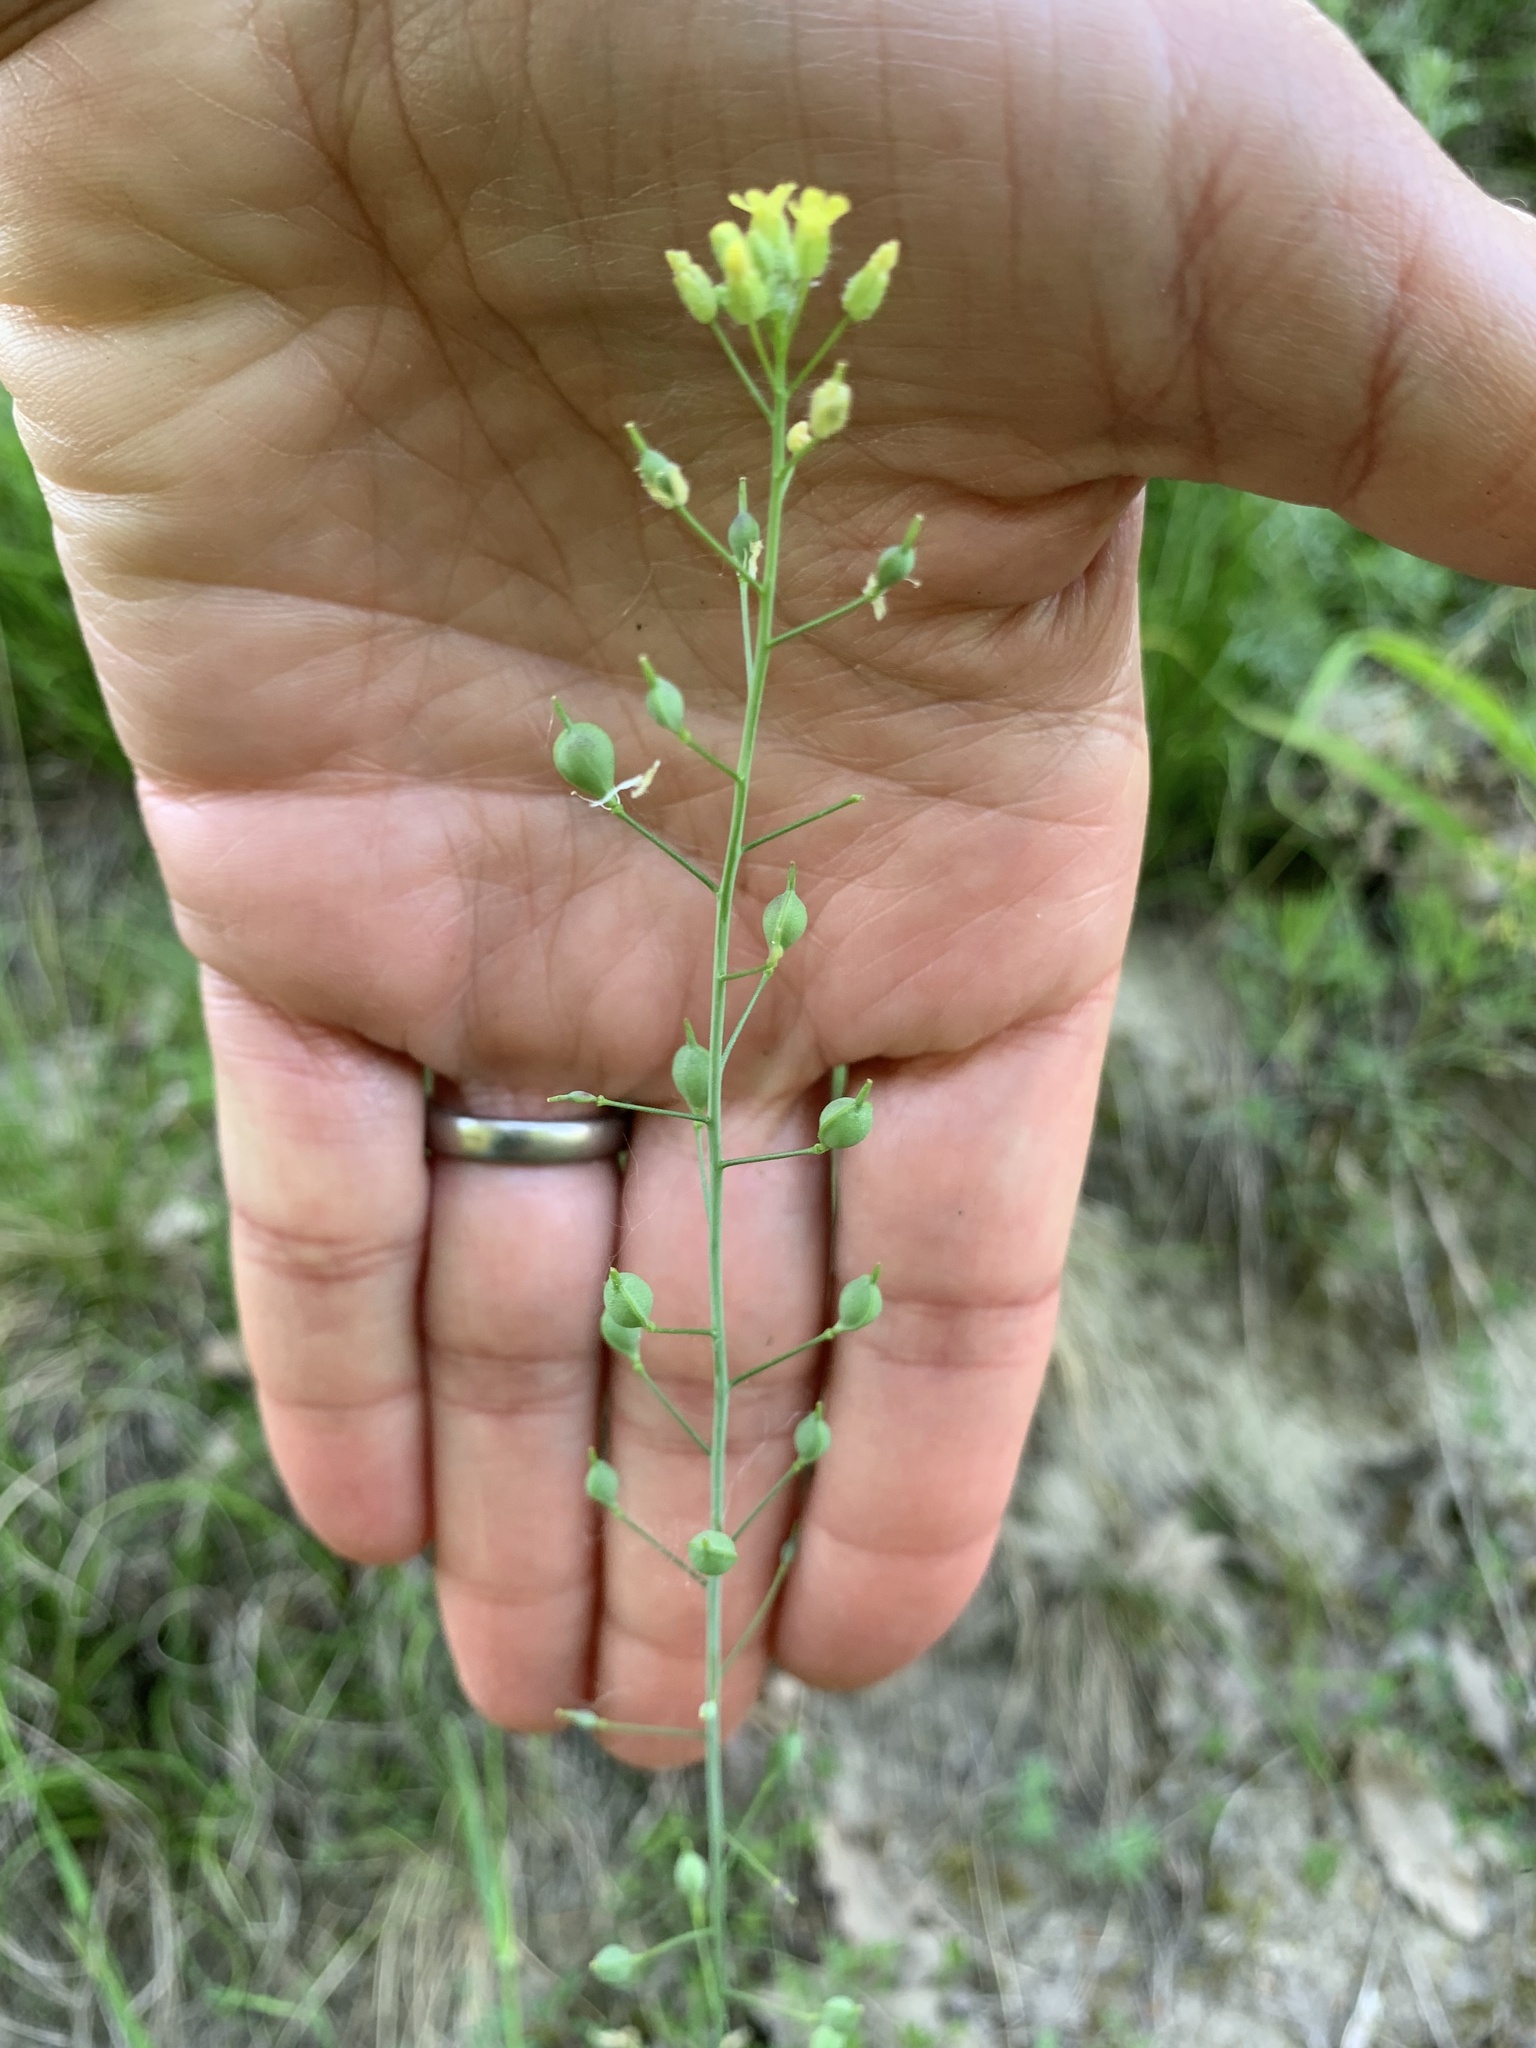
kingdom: Plantae
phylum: Tracheophyta
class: Magnoliopsida
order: Brassicales
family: Brassicaceae
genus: Camelina
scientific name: Camelina microcarpa
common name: Lesser gold-of-pleasure
